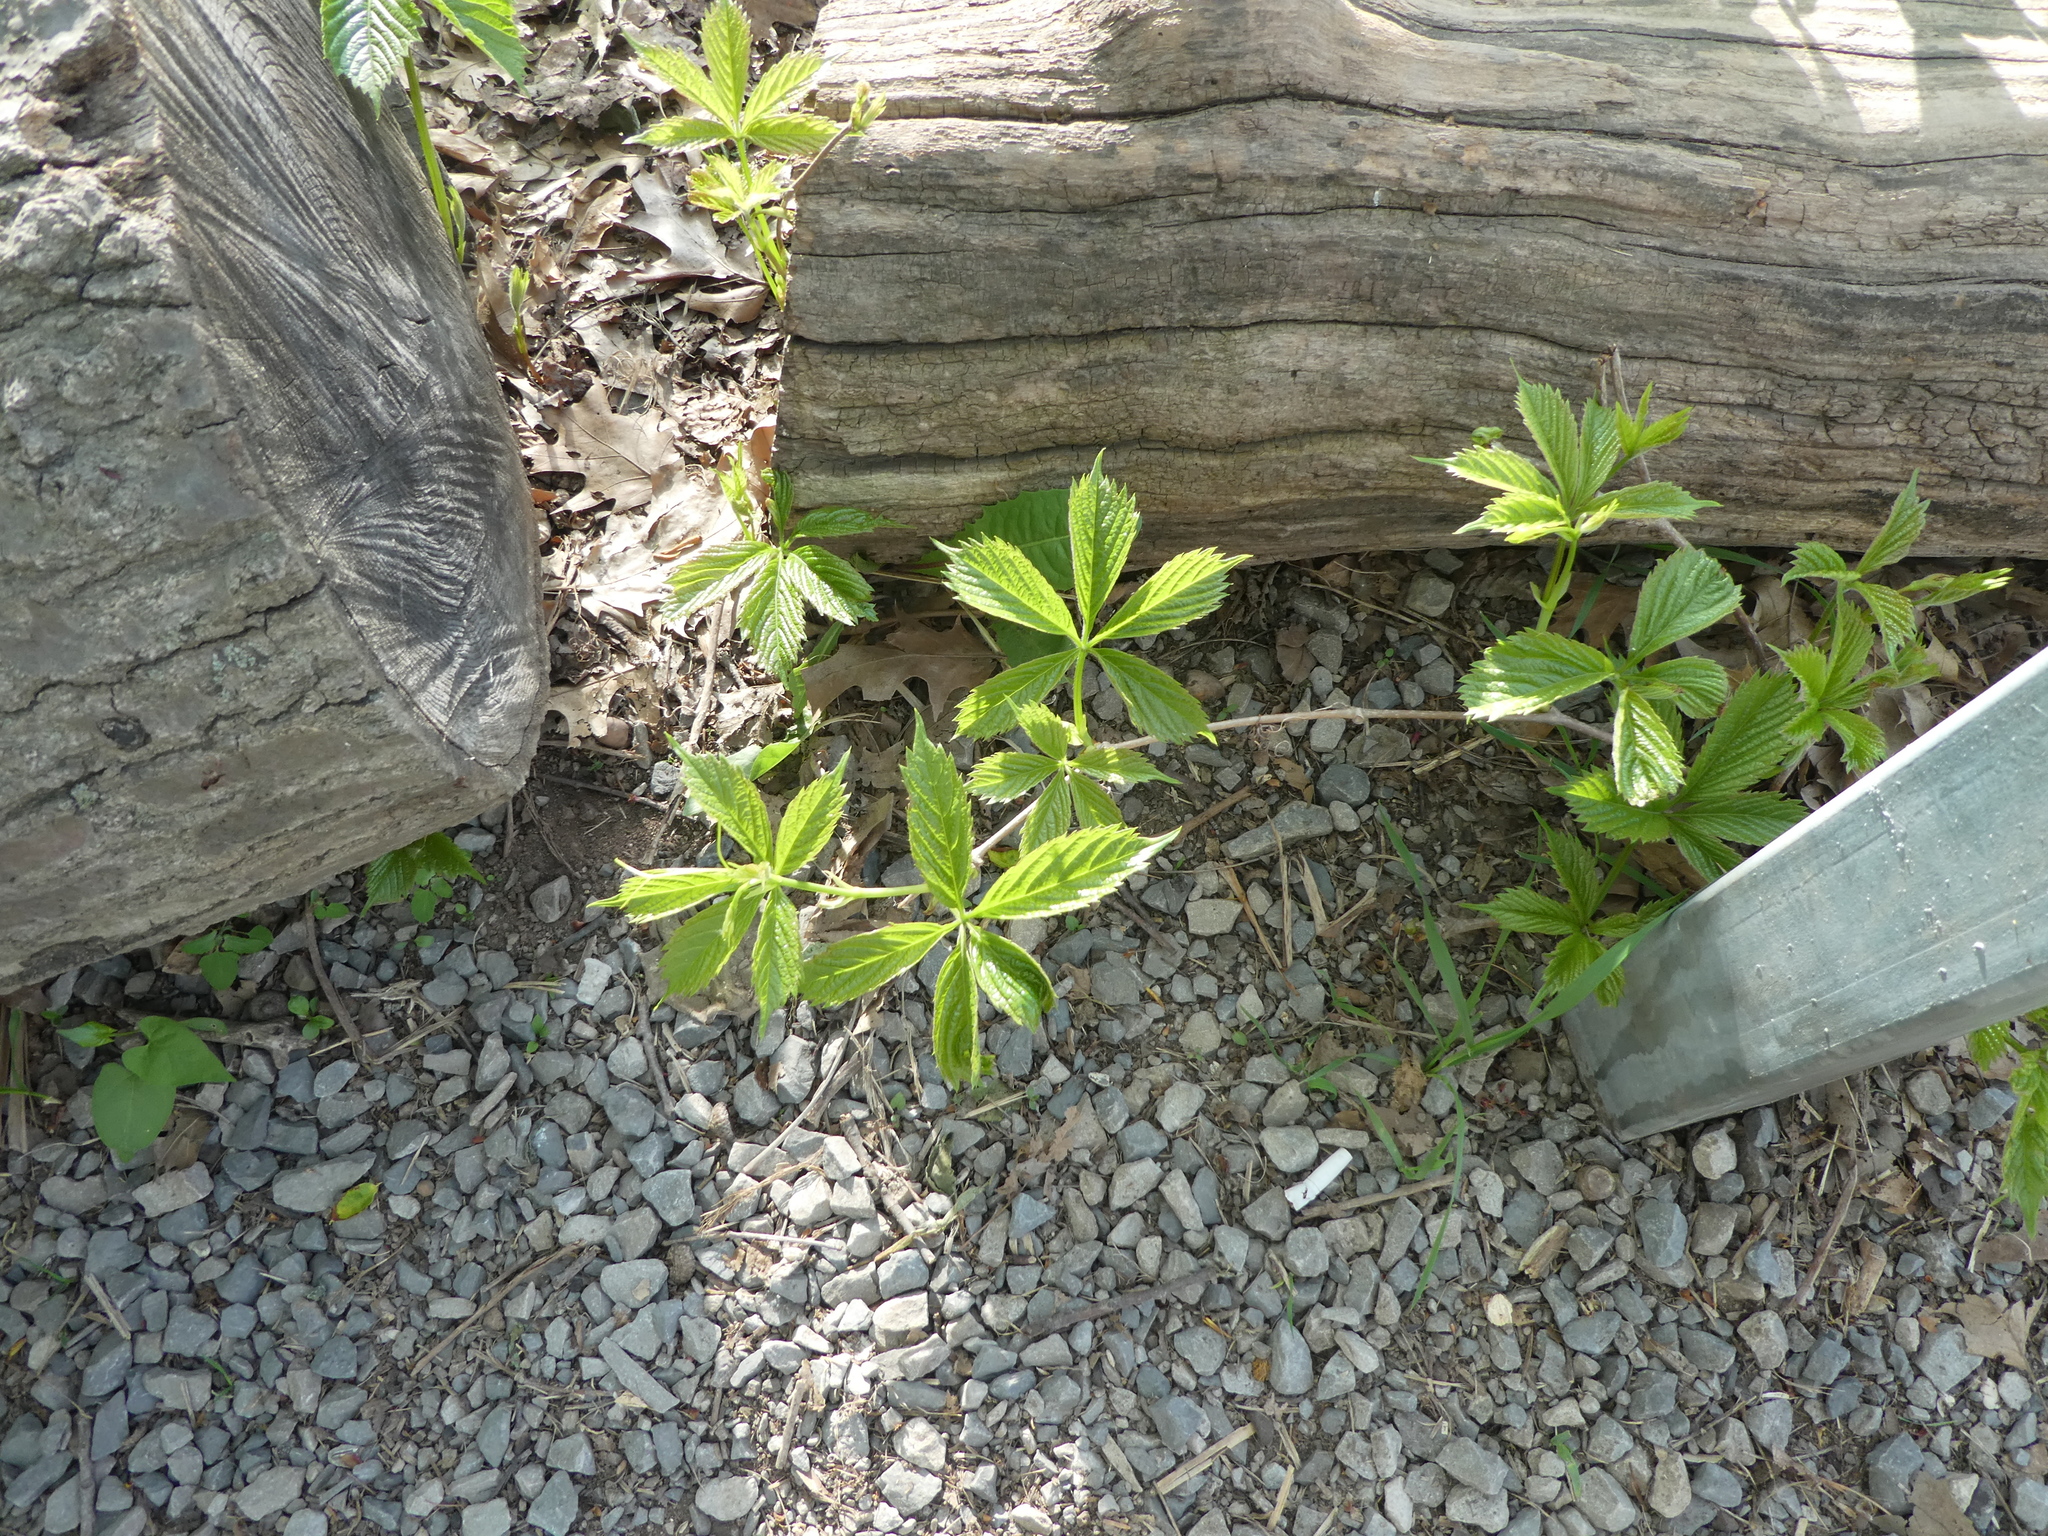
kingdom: Plantae
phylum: Tracheophyta
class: Magnoliopsida
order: Vitales
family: Vitaceae
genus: Parthenocissus
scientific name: Parthenocissus quinquefolia
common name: Virginia-creeper
